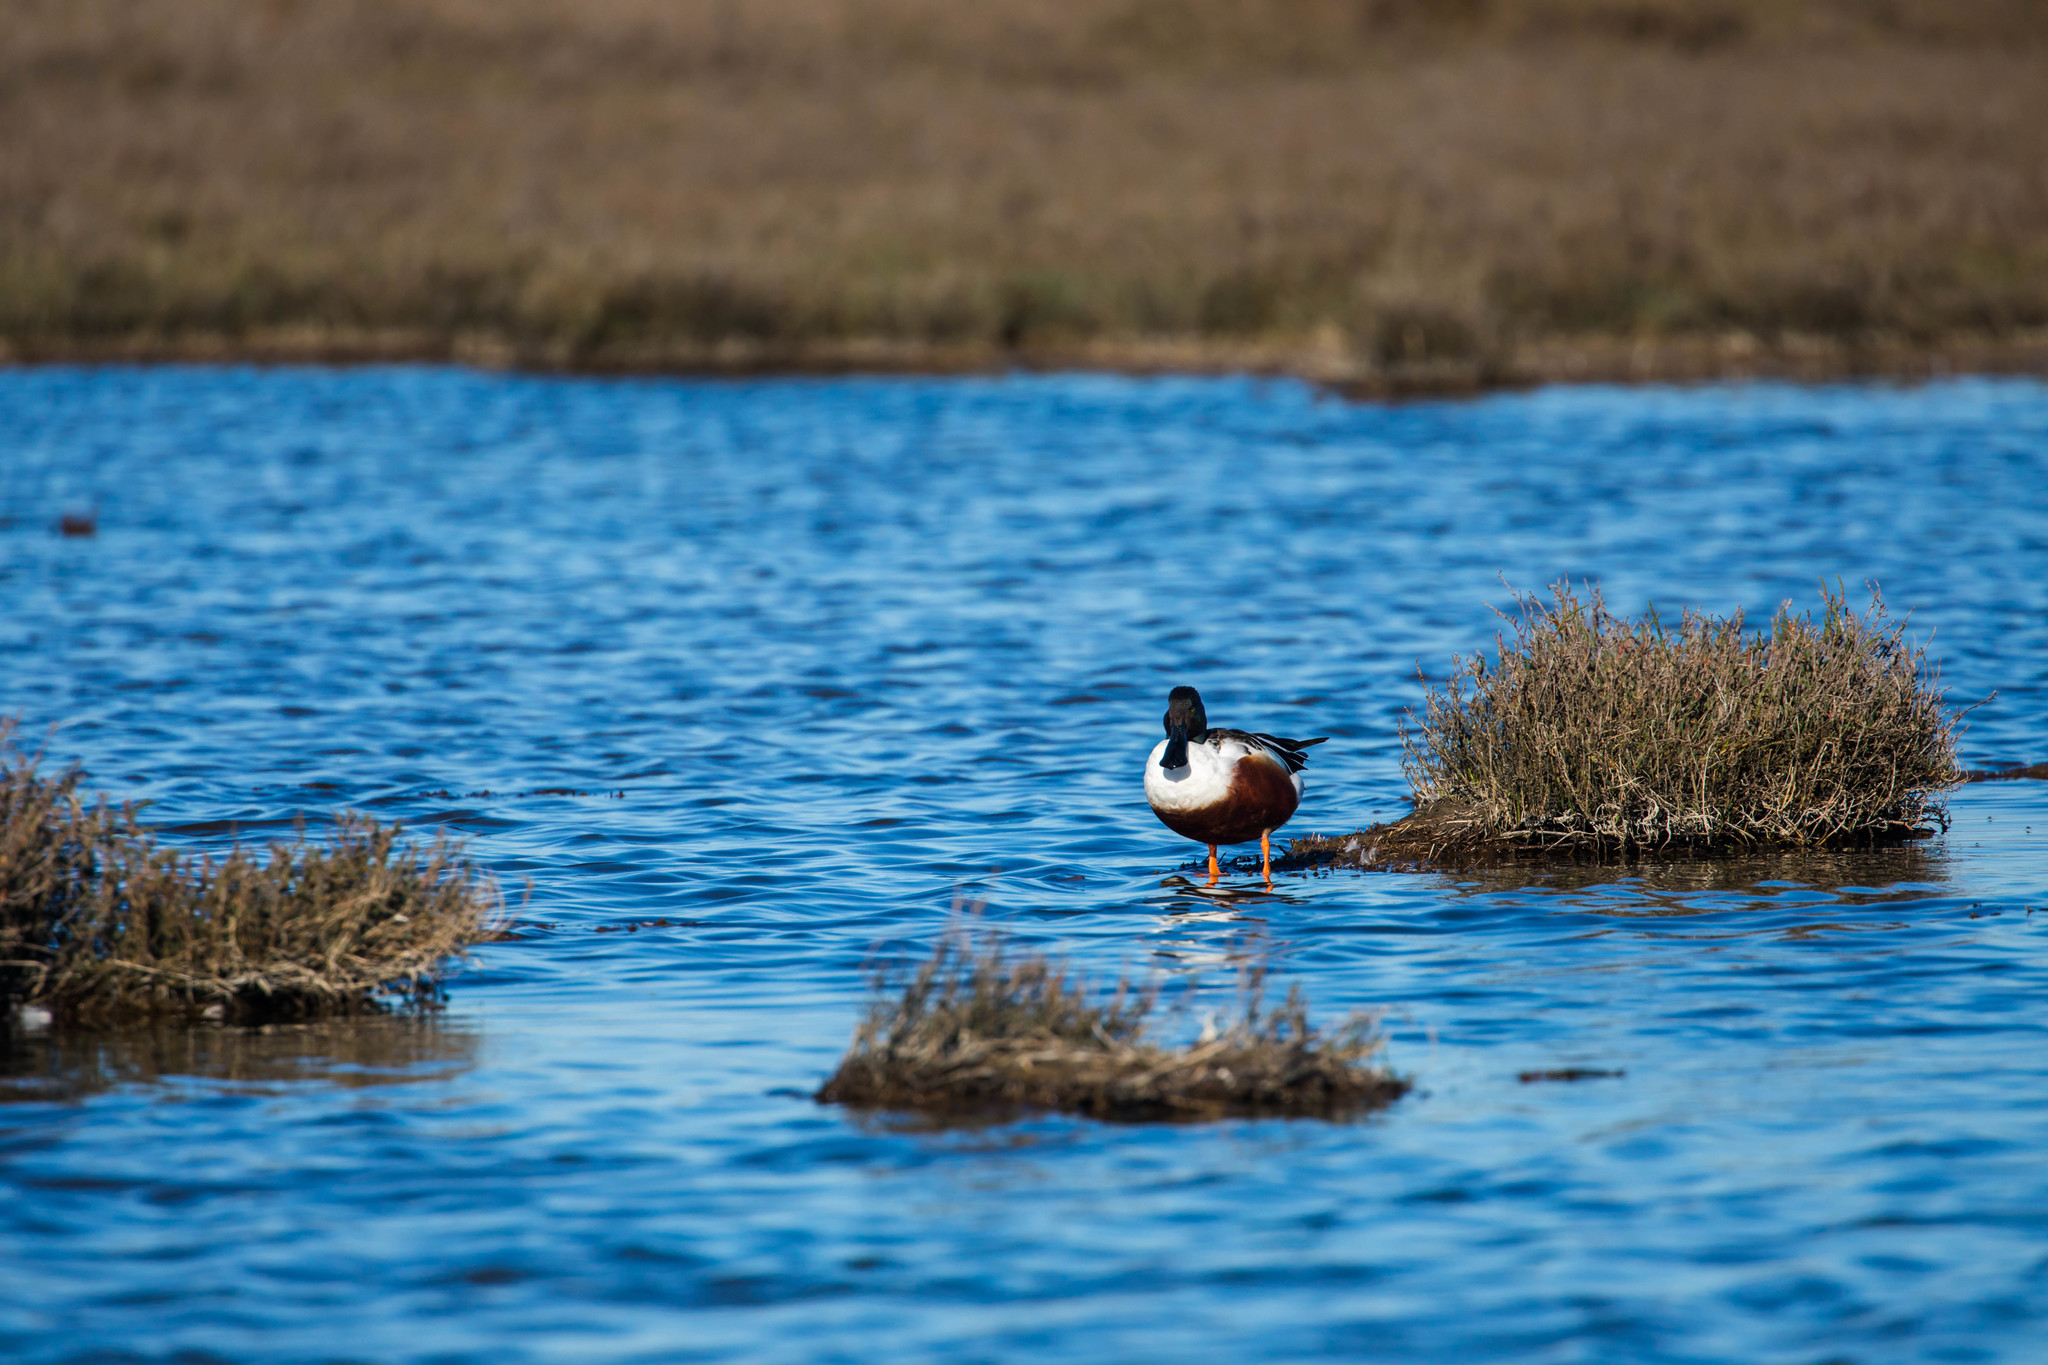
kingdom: Animalia
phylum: Chordata
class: Aves
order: Anseriformes
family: Anatidae
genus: Spatula
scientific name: Spatula clypeata
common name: Northern shoveler
